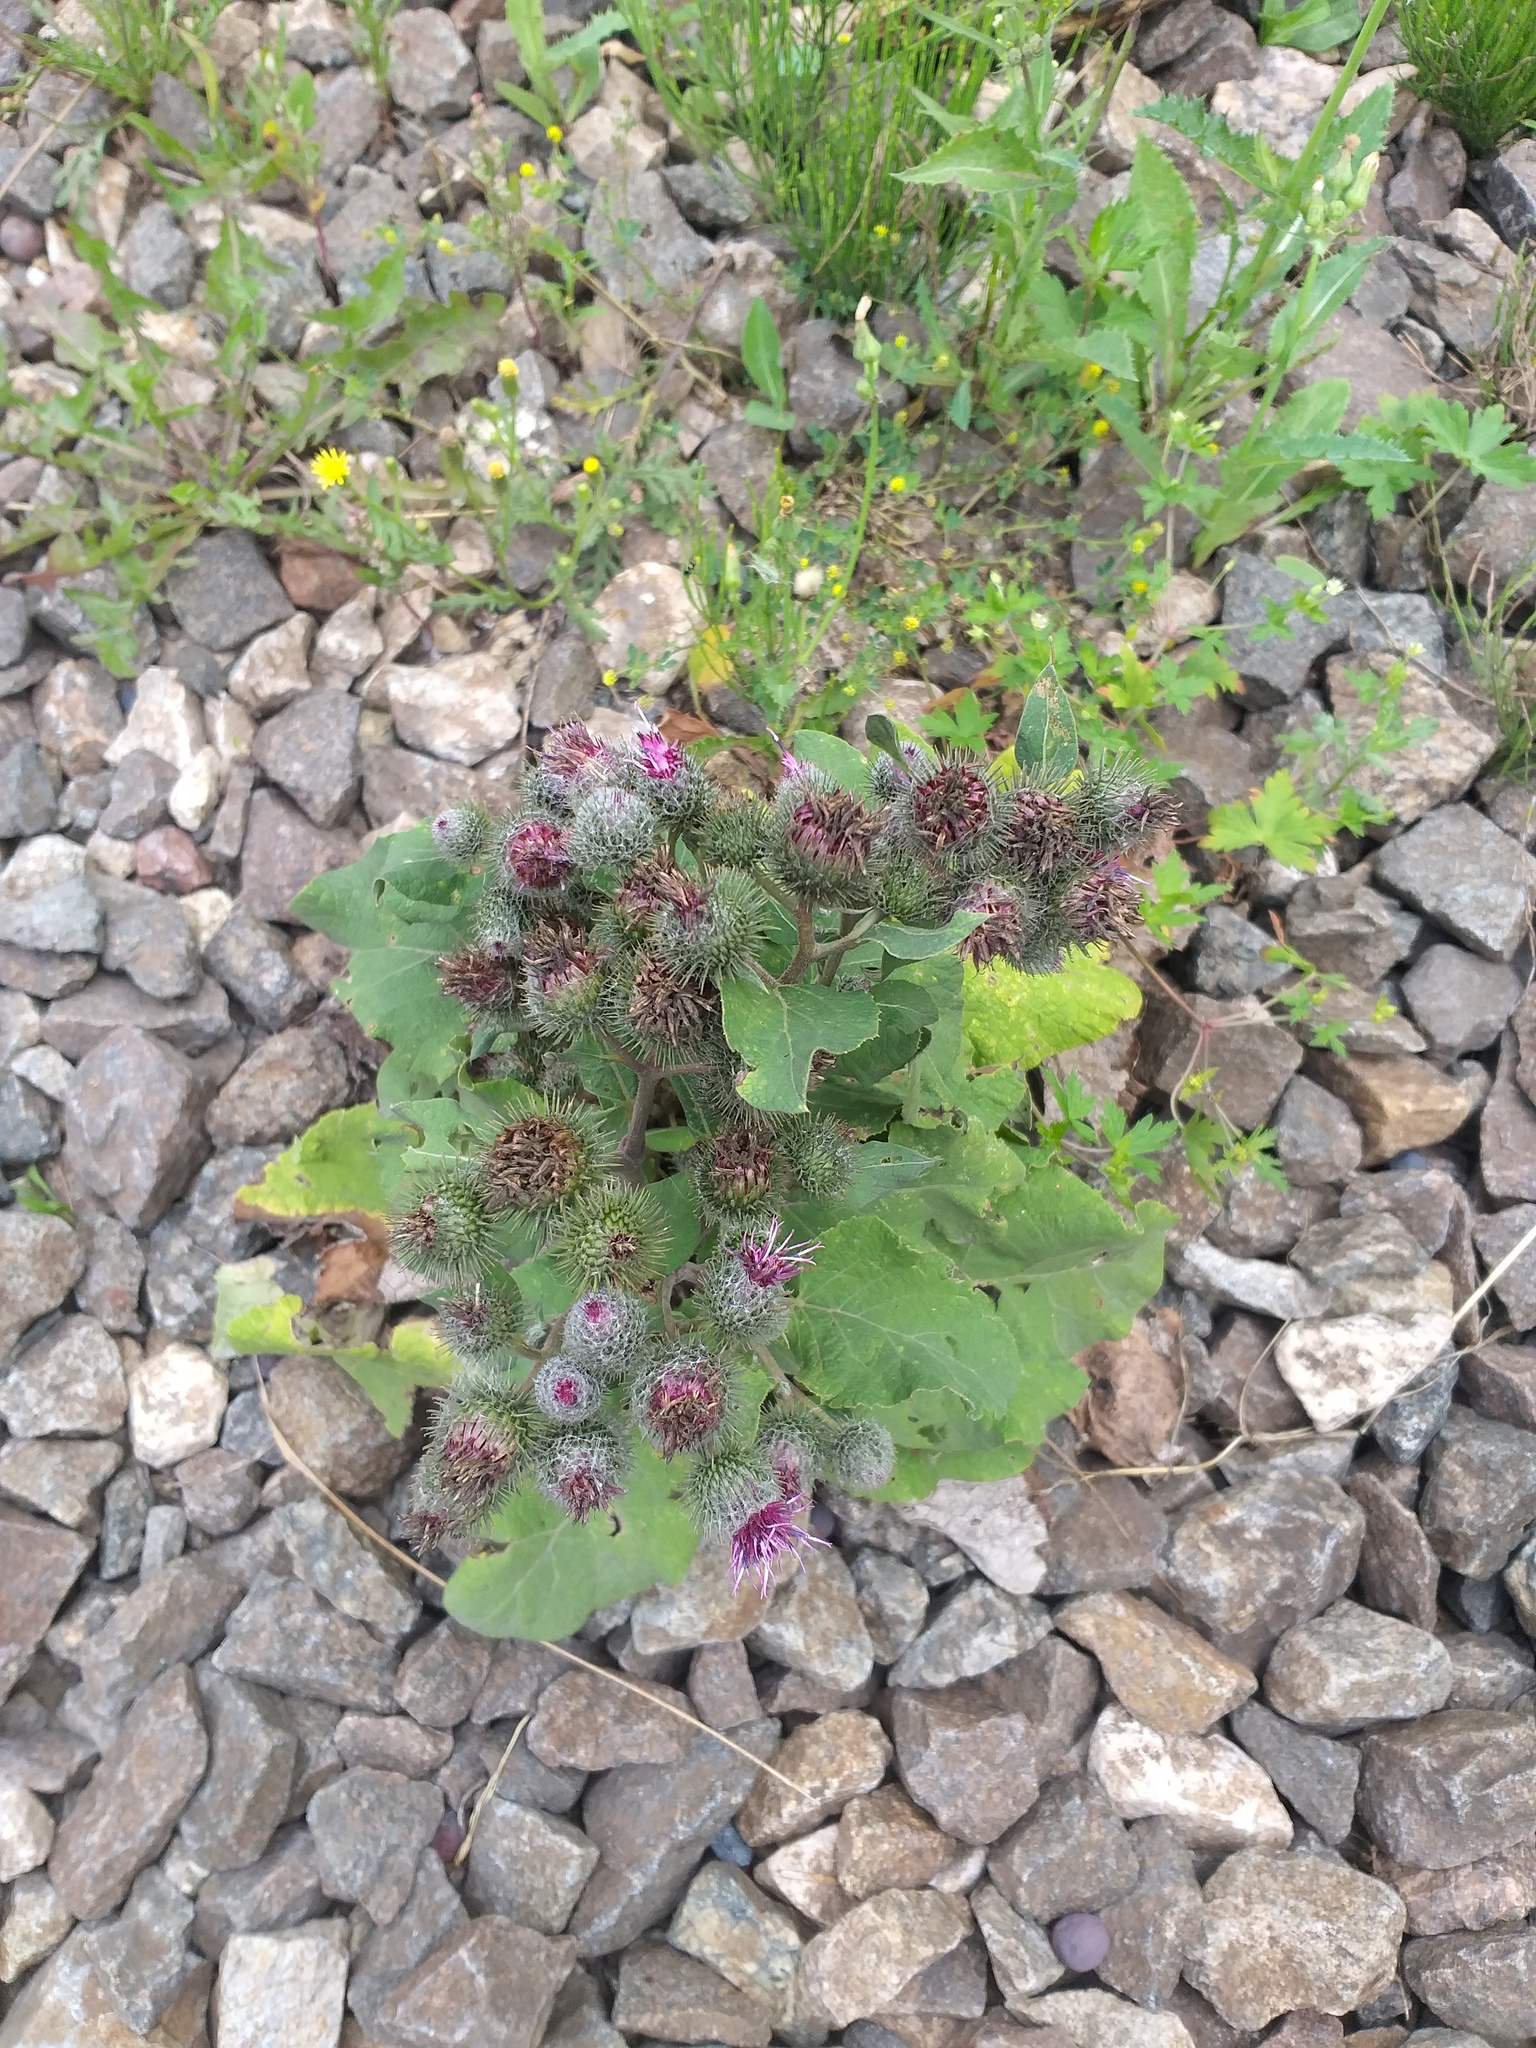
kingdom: Plantae
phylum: Tracheophyta
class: Magnoliopsida
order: Asterales
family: Asteraceae
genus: Arctium
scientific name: Arctium tomentosum
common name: Woolly burdock
